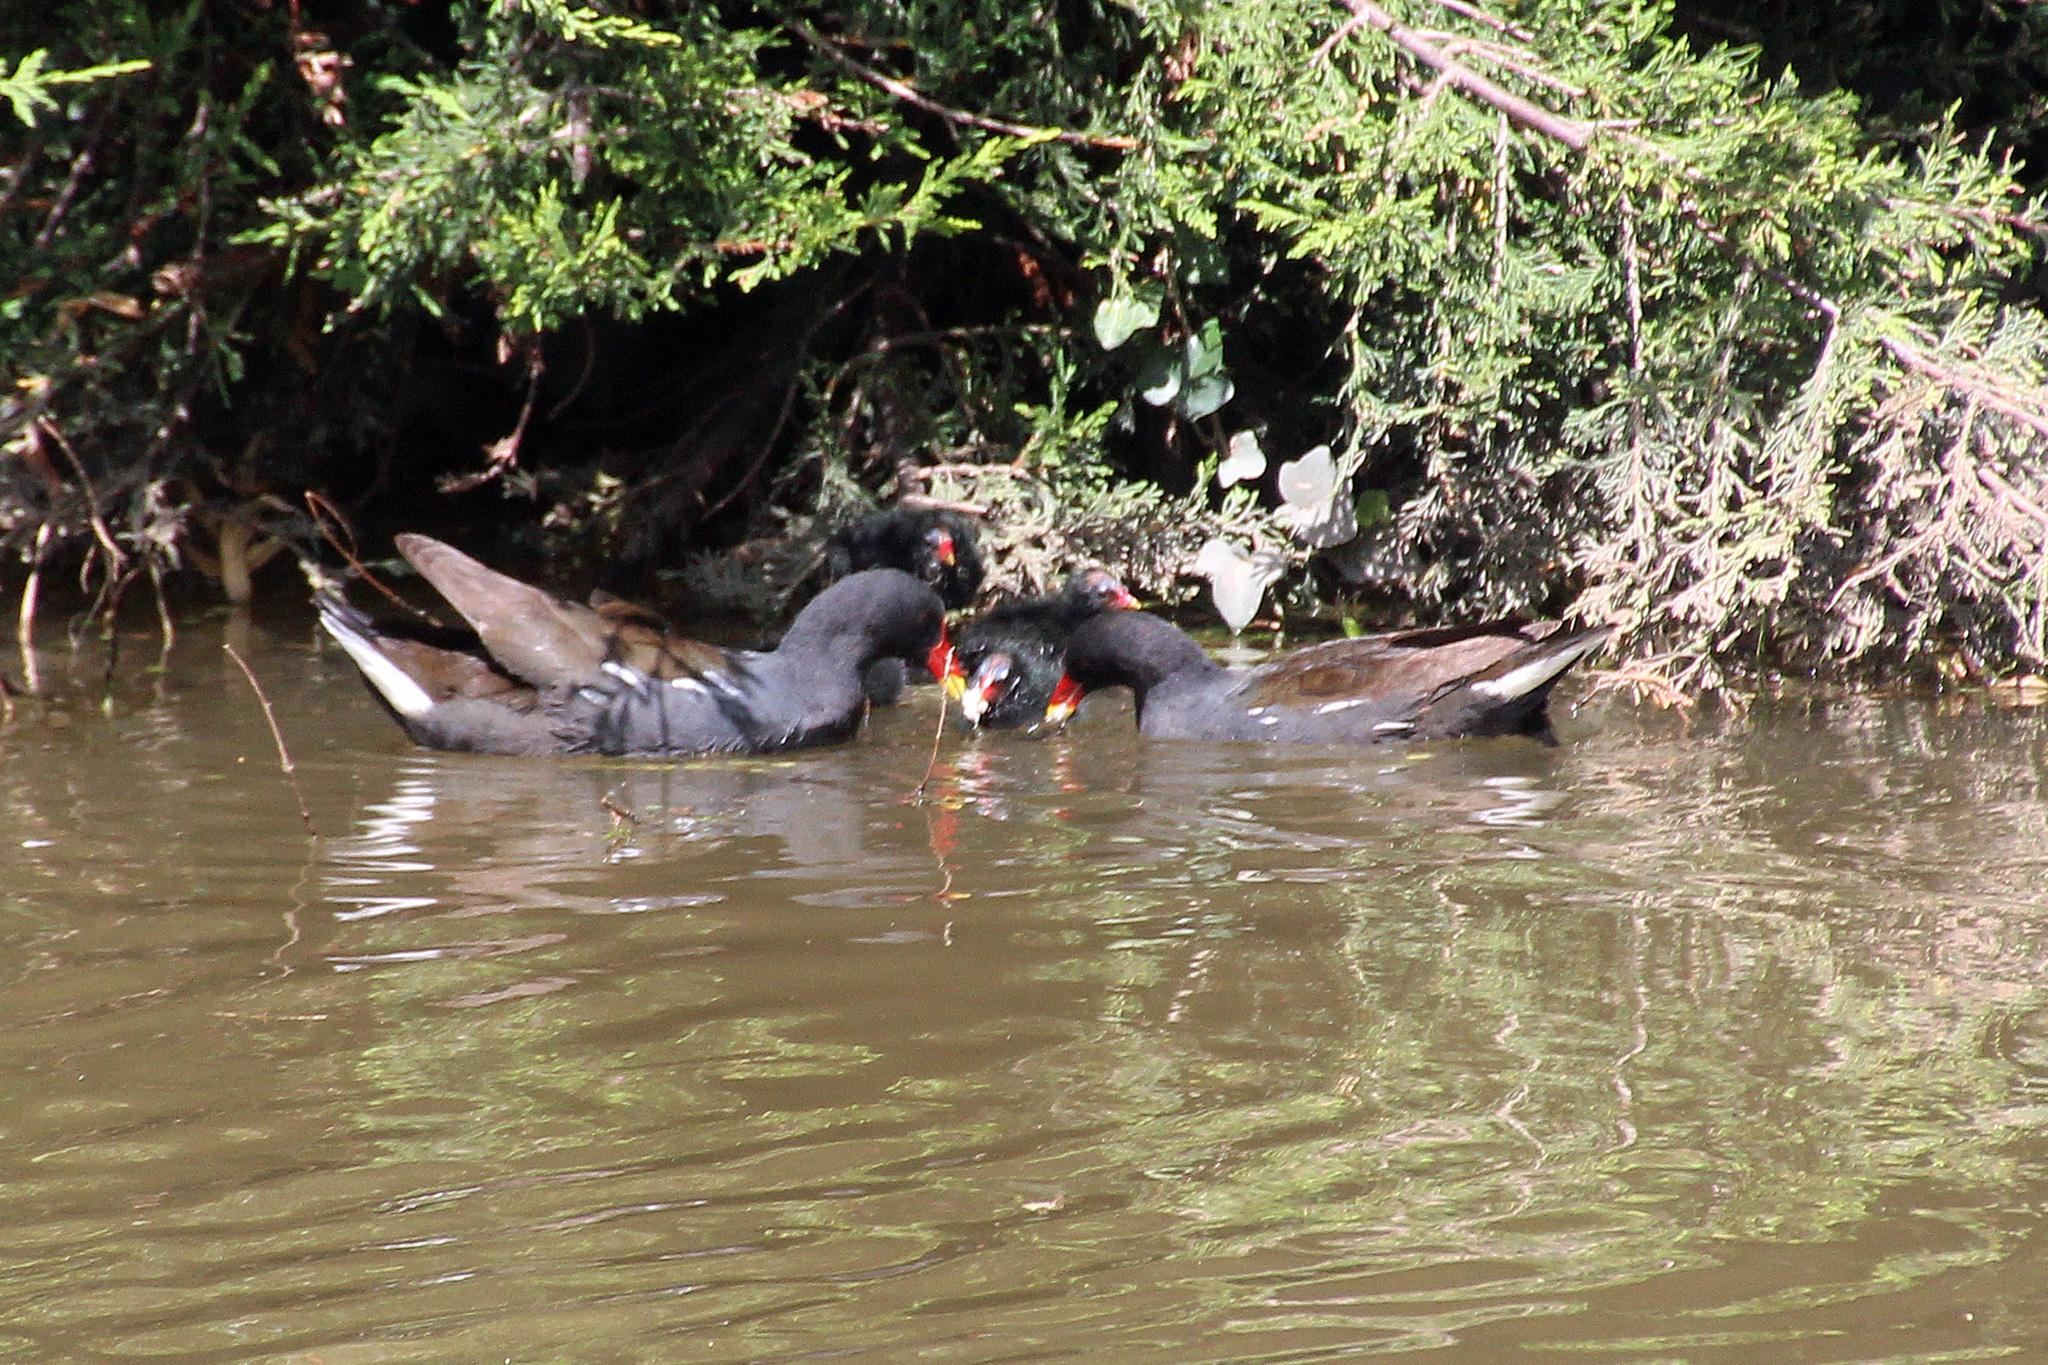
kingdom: Animalia
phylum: Chordata
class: Aves
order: Gruiformes
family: Rallidae
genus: Gallinula
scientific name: Gallinula chloropus
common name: Common moorhen
